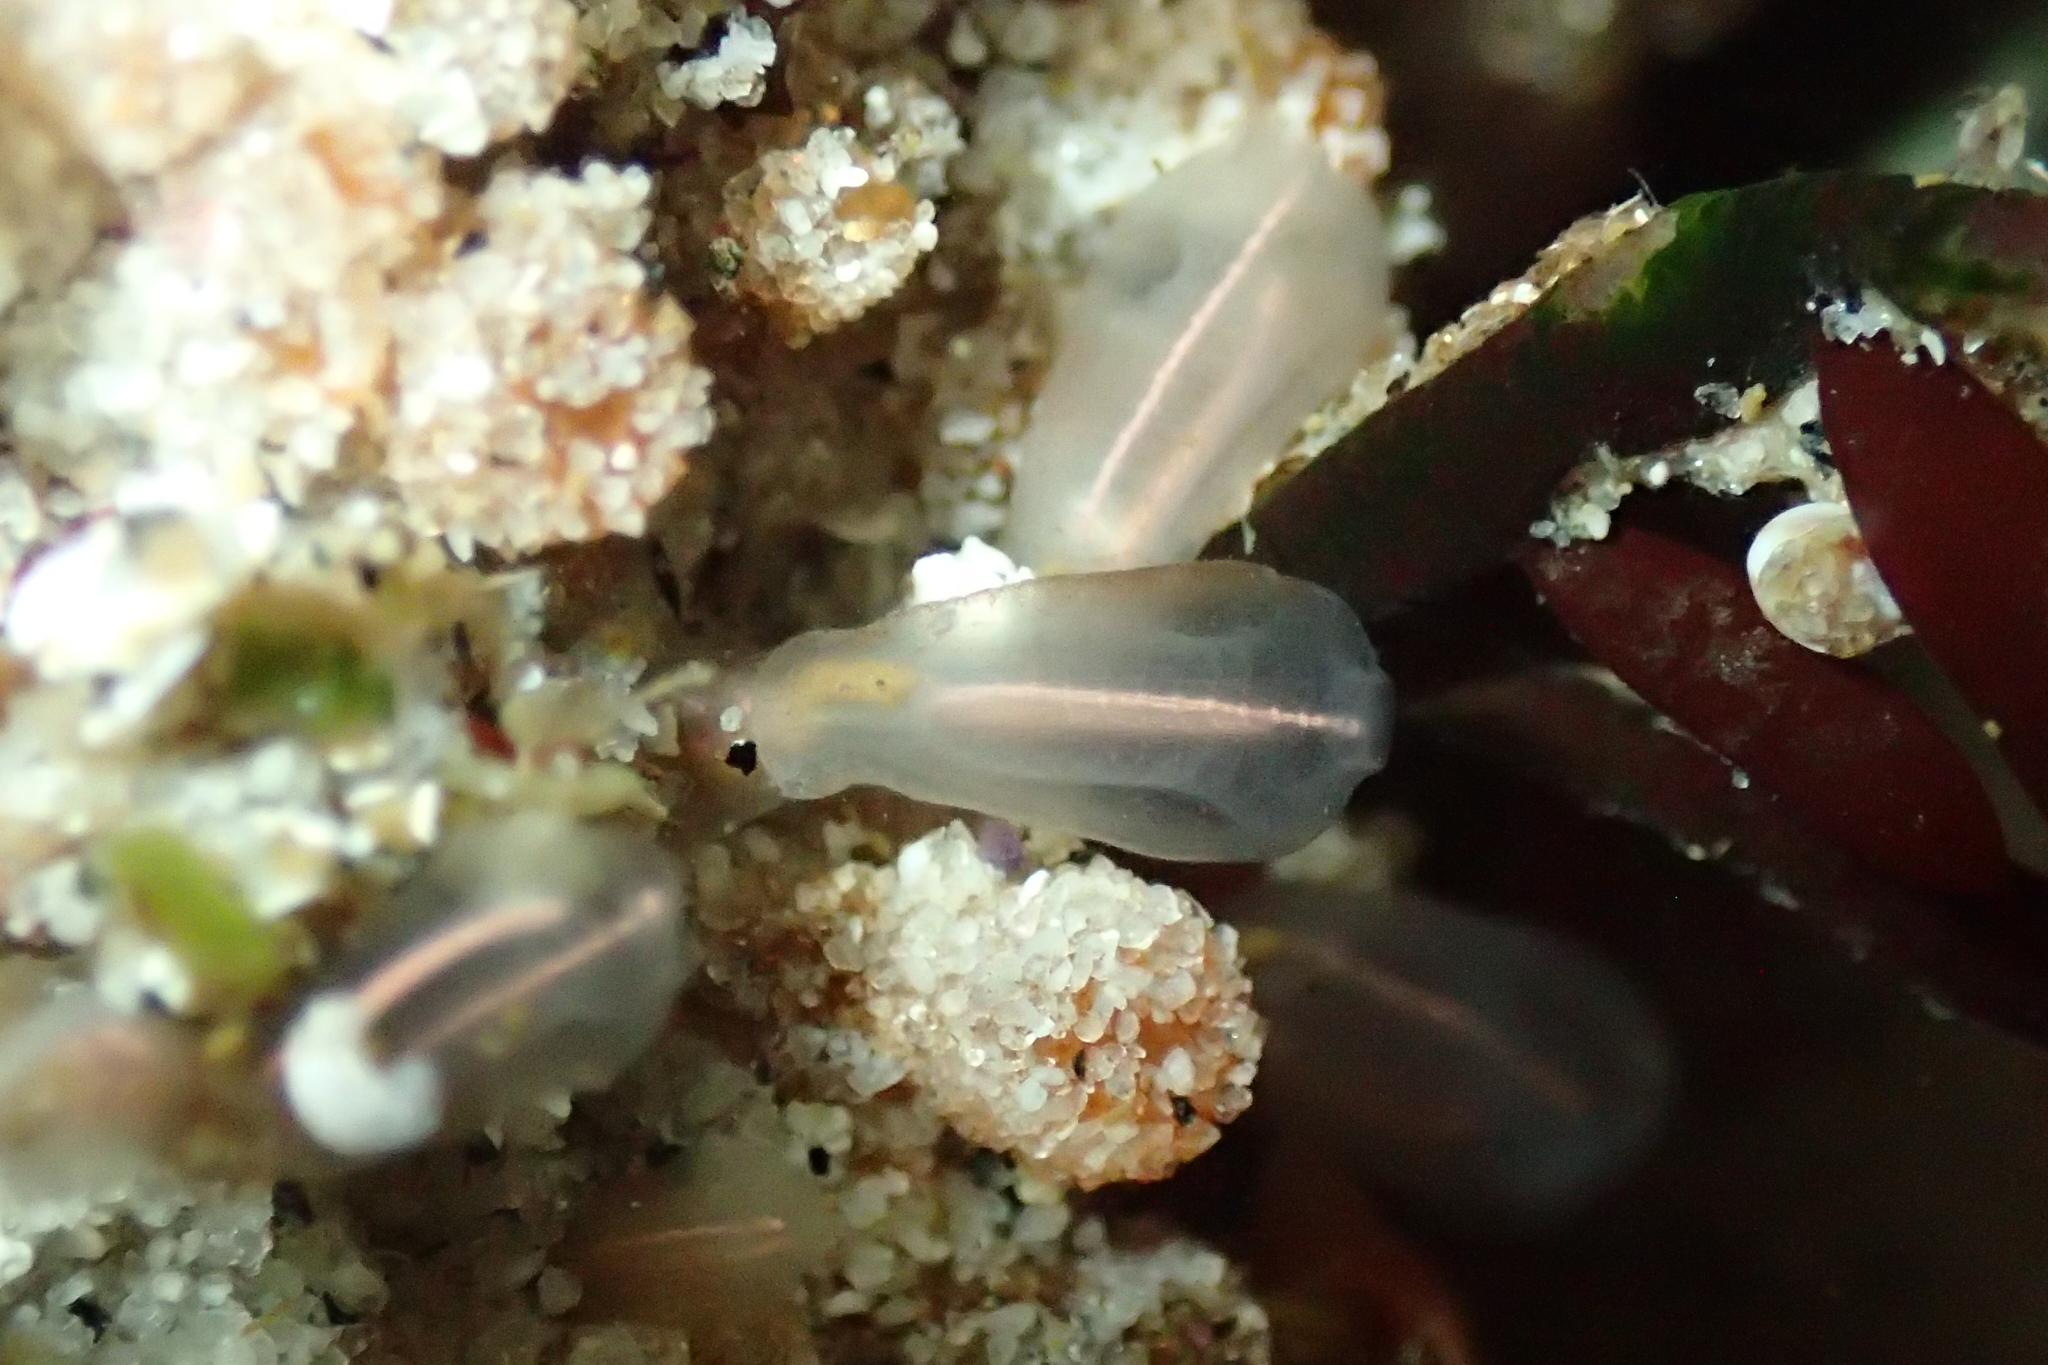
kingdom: Animalia
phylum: Chordata
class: Ascidiacea
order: Aplousobranchia
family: Clavelinidae
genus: Clavelina
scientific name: Clavelina huntsmani
